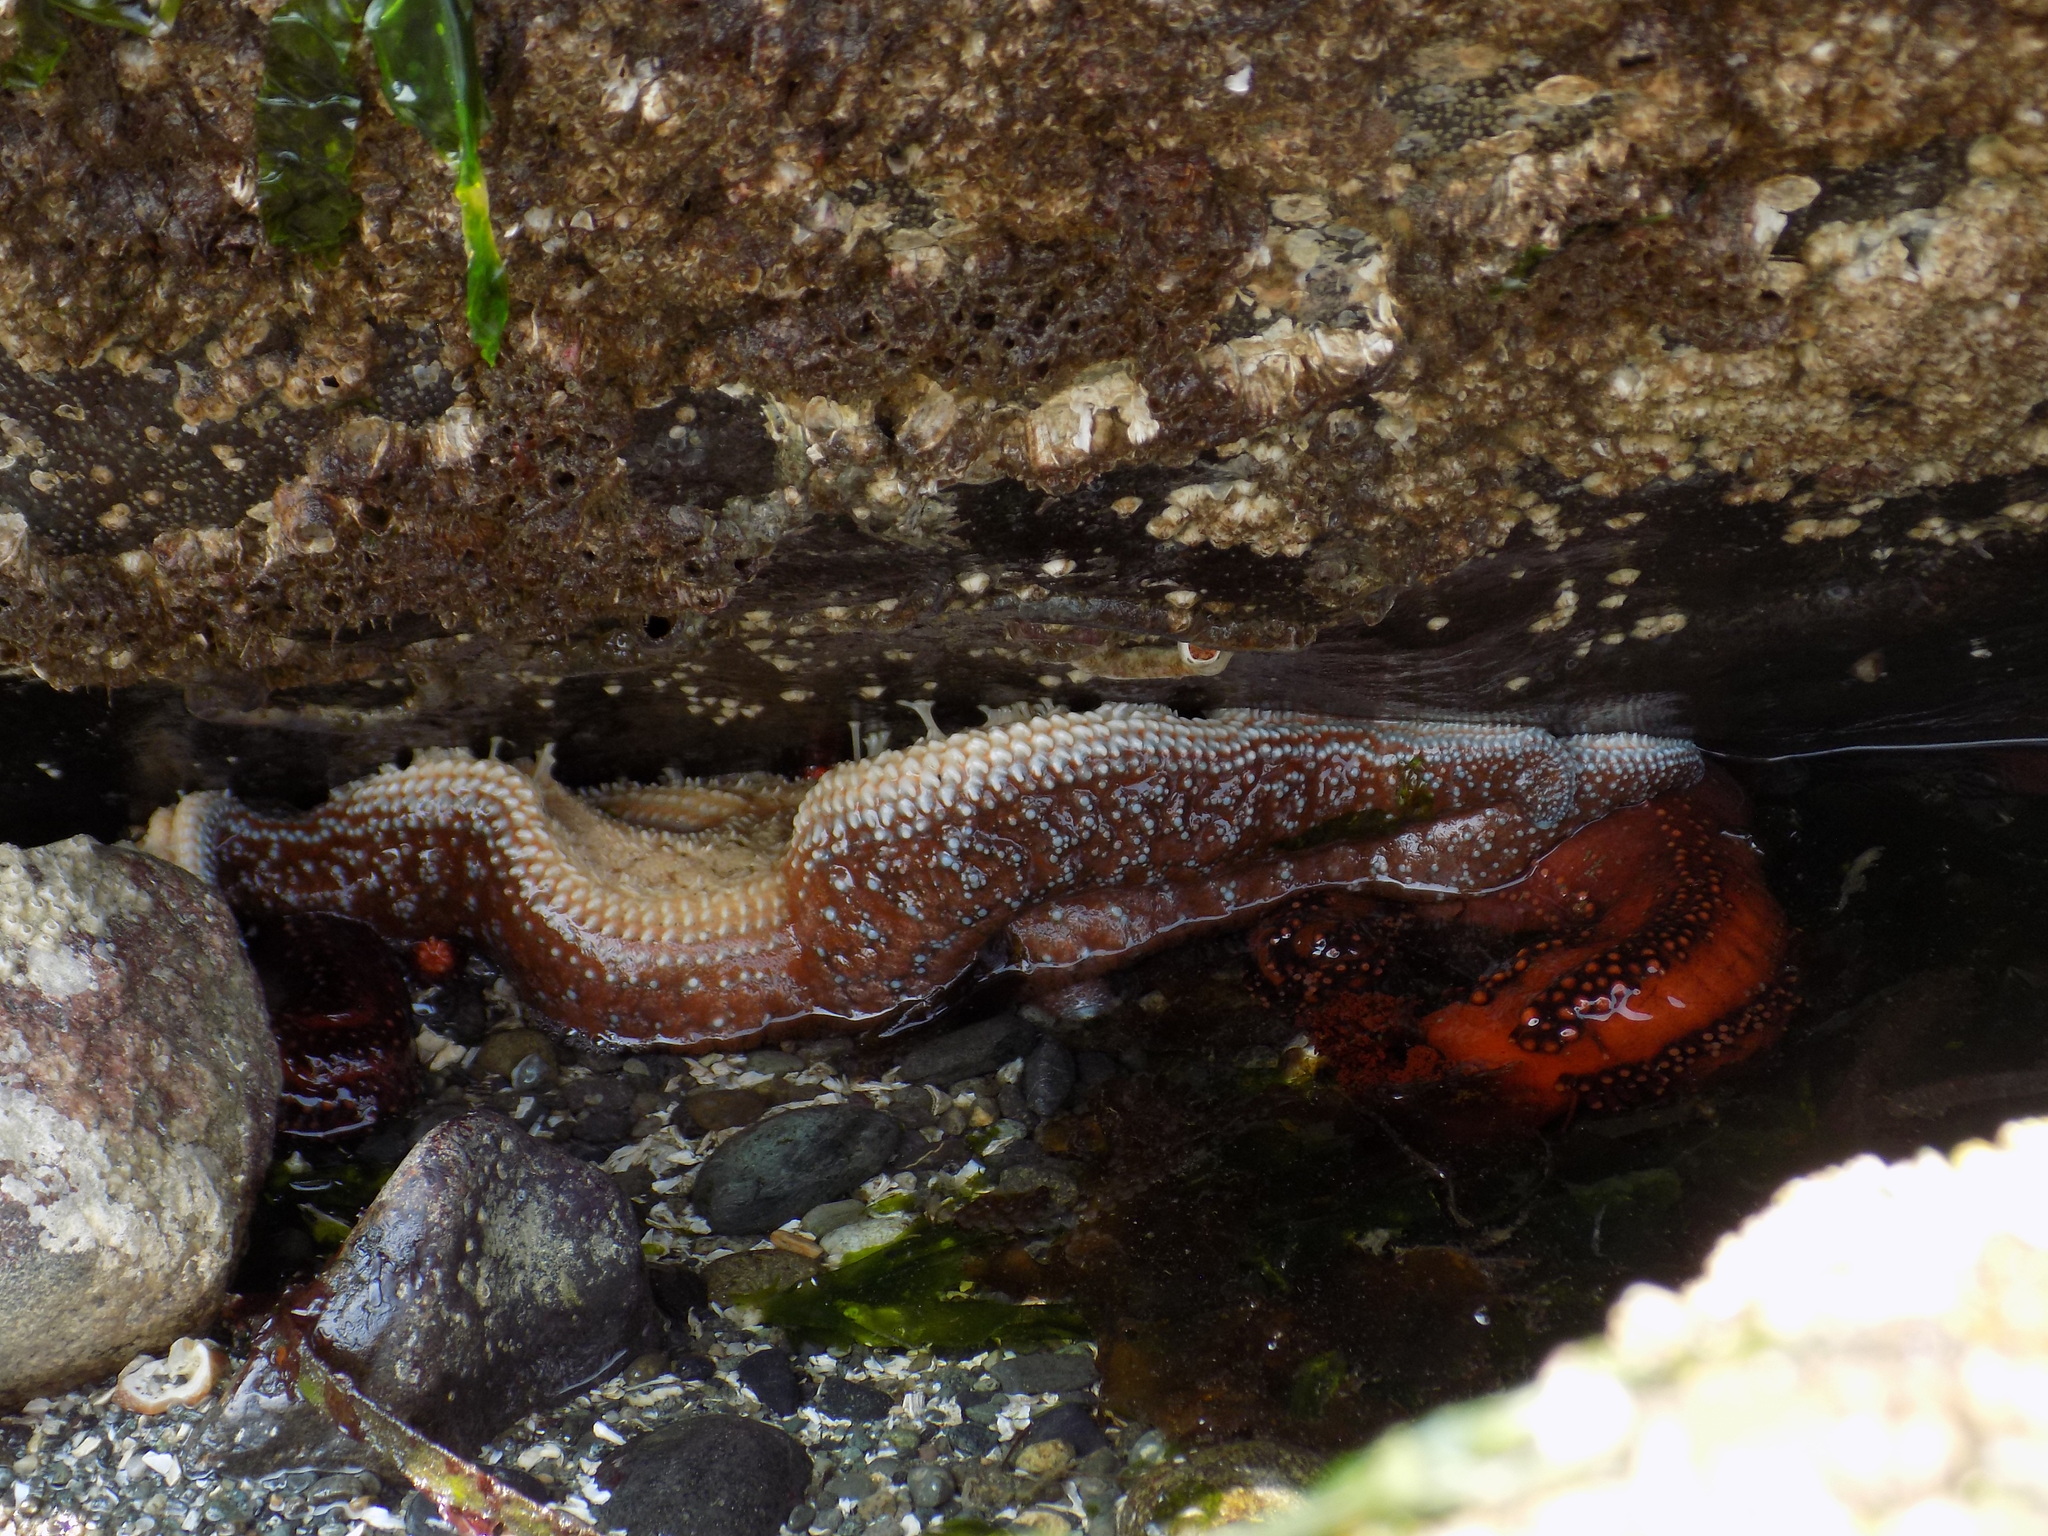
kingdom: Animalia
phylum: Echinodermata
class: Asteroidea
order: Forcipulatida
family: Asteriidae
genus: Evasterias
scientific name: Evasterias troschelii
